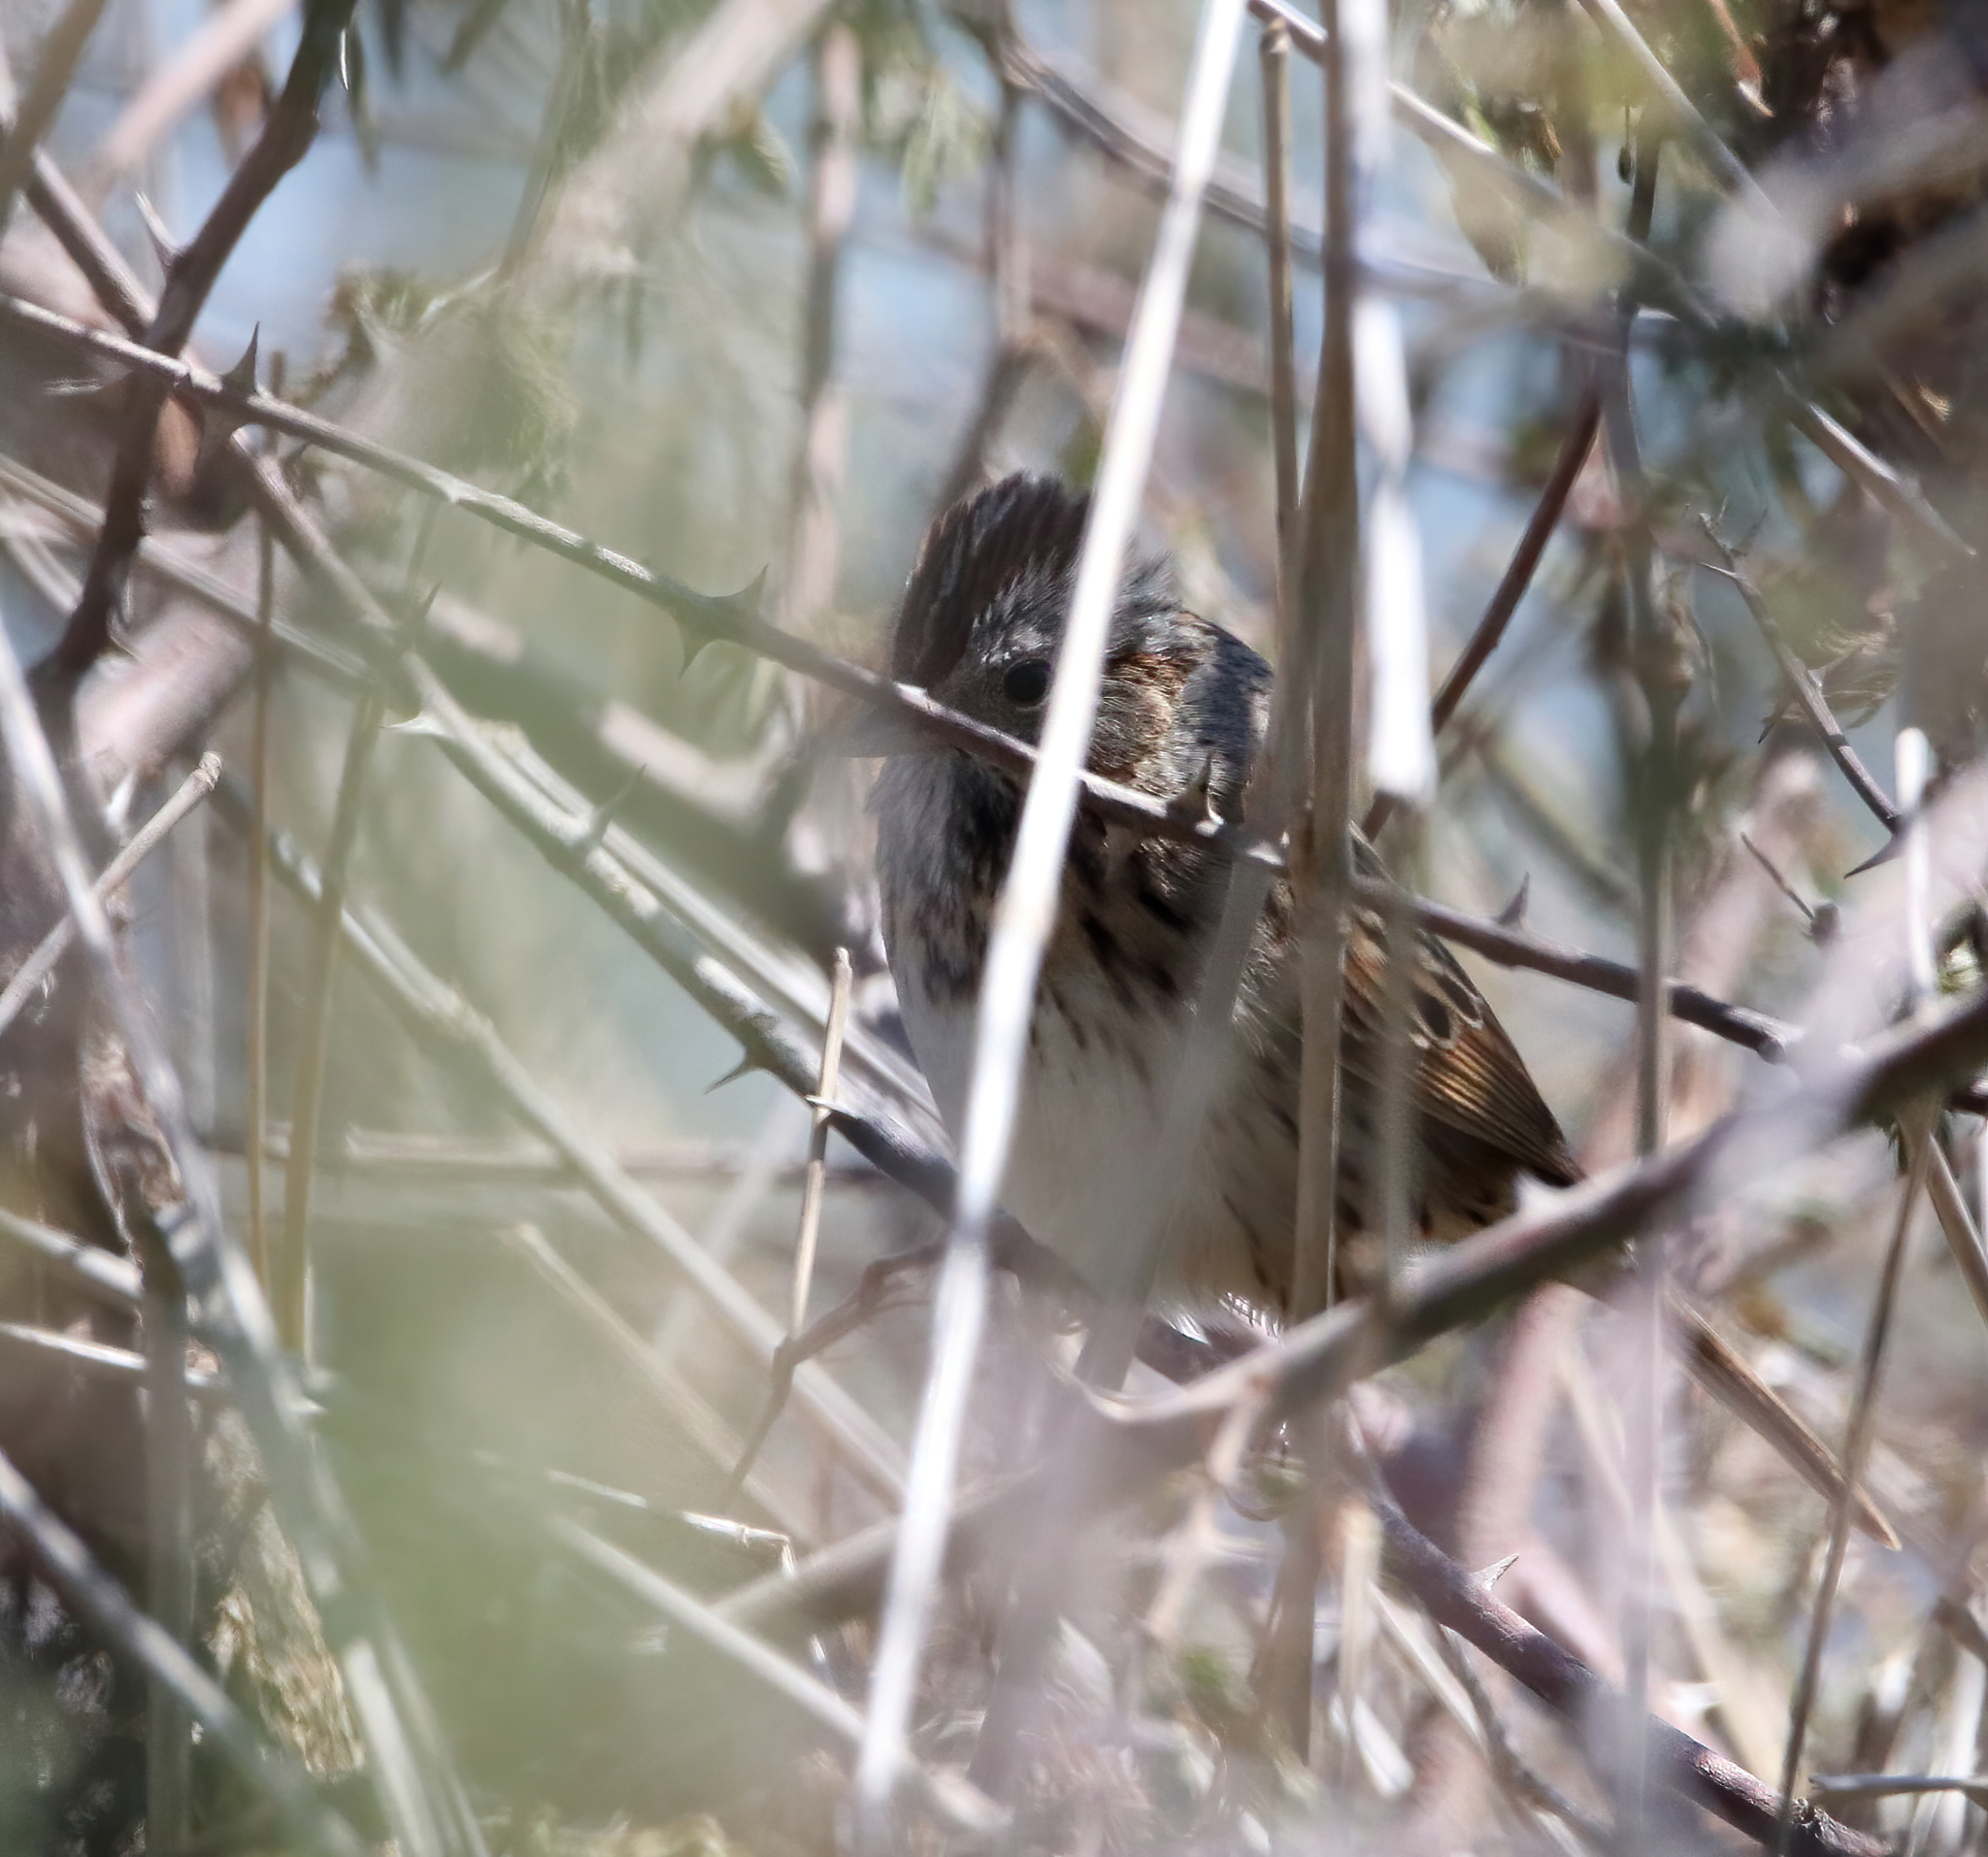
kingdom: Animalia
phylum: Chordata
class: Aves
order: Passeriformes
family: Passerellidae
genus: Melospiza
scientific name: Melospiza lincolnii
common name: Lincoln's sparrow
